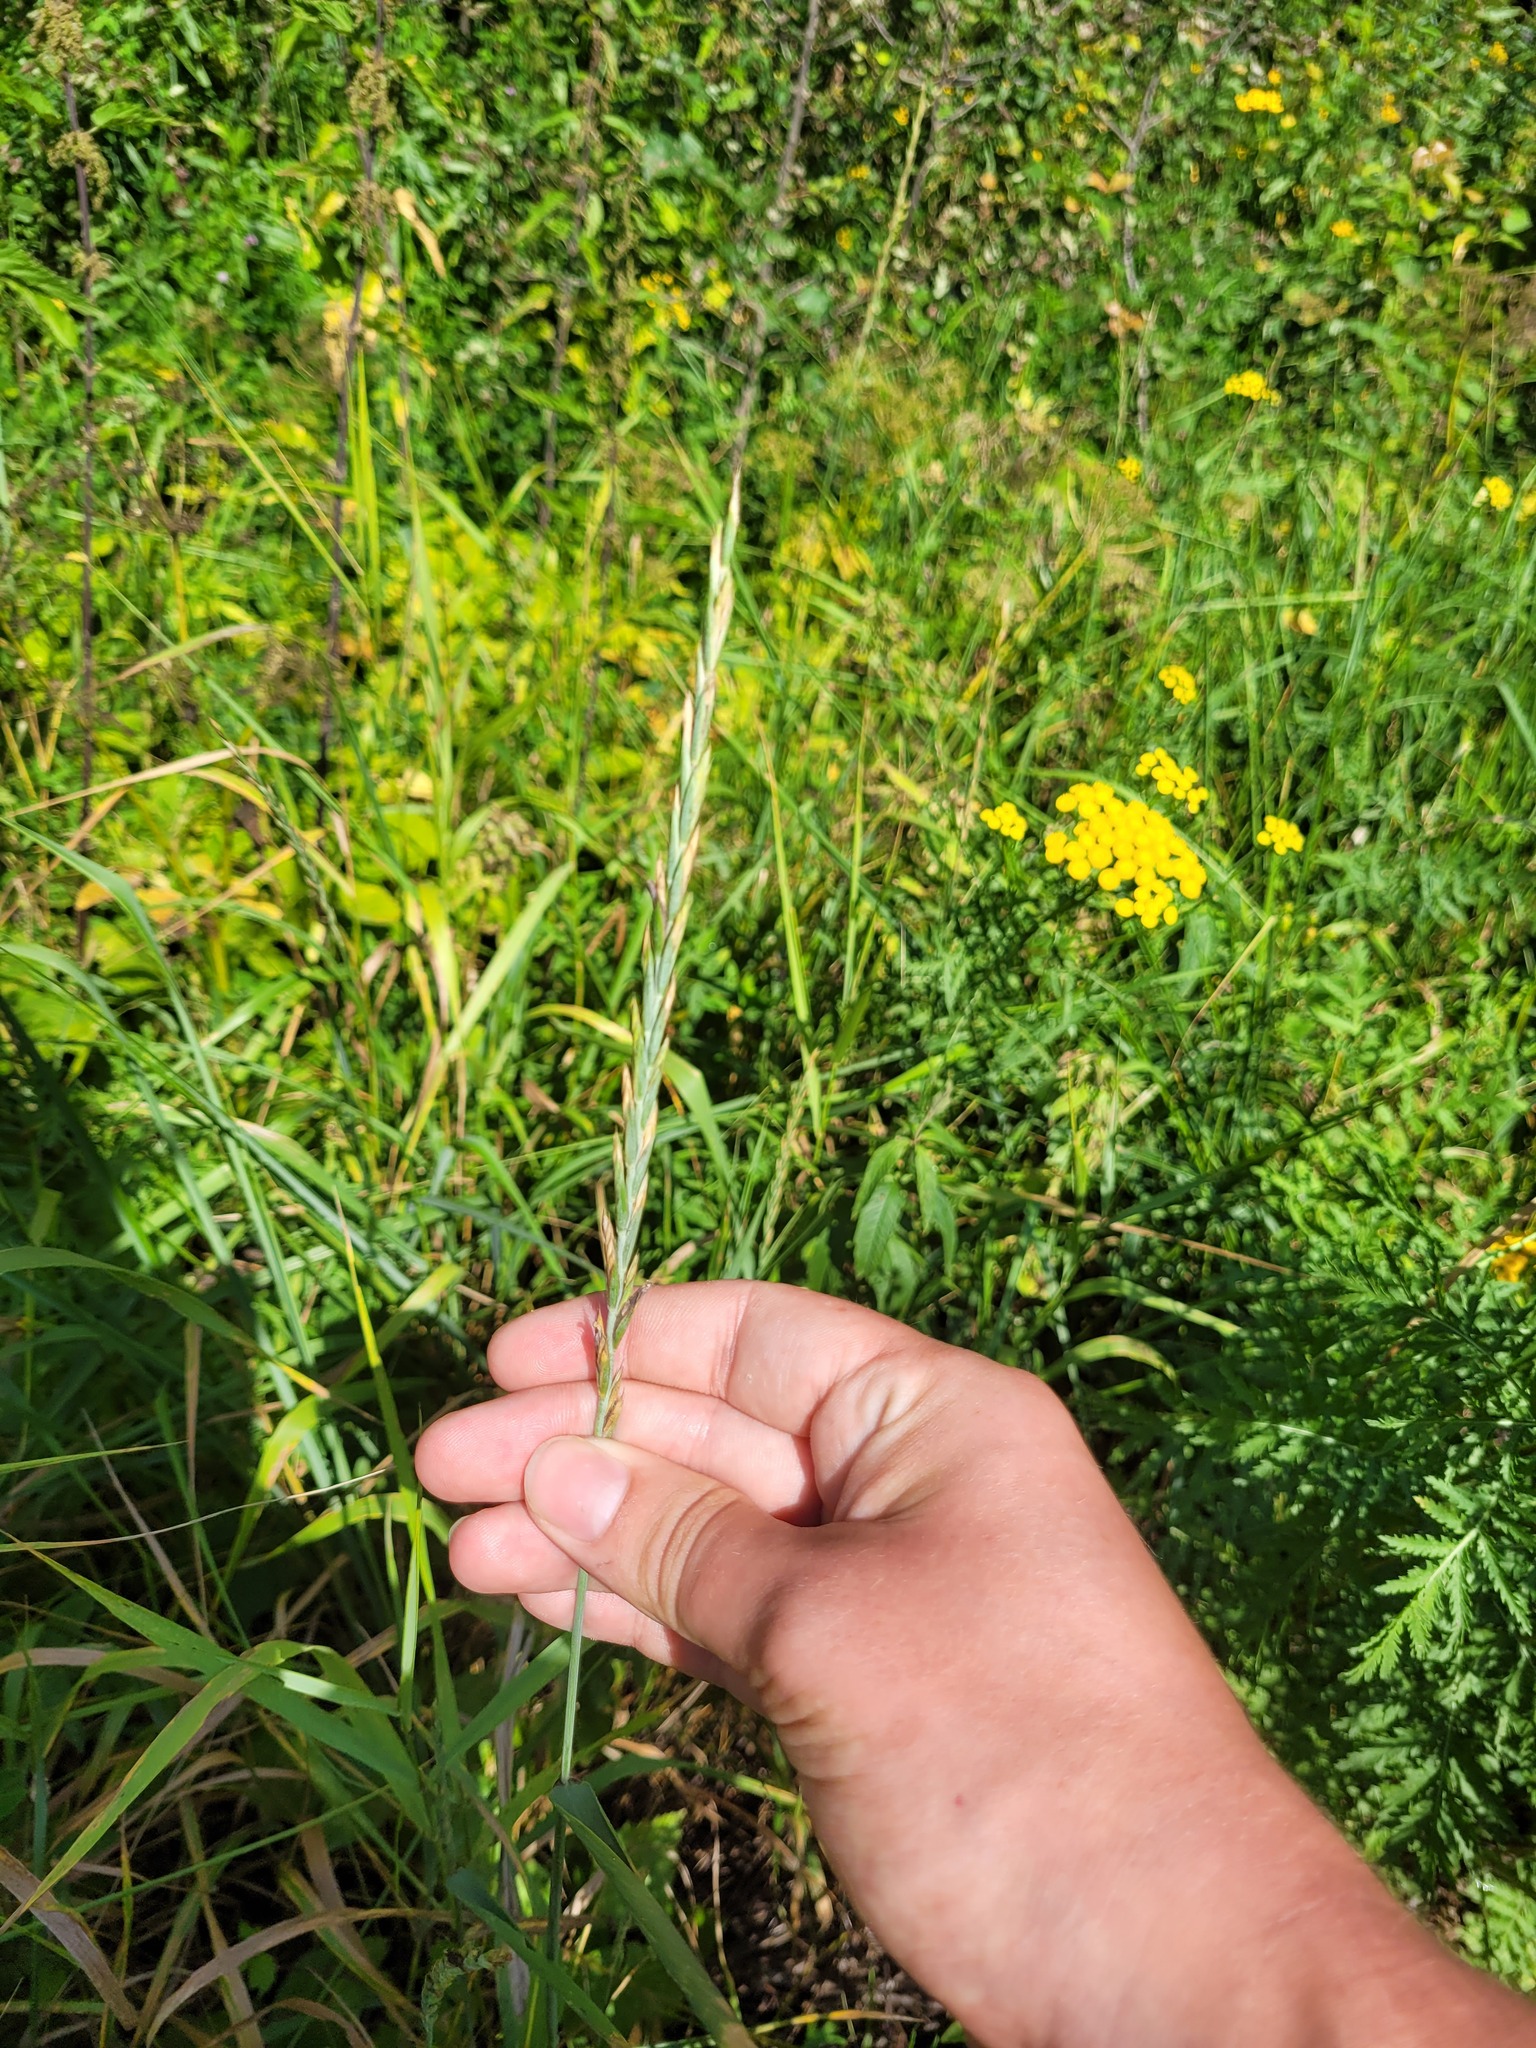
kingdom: Plantae
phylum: Tracheophyta
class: Liliopsida
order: Poales
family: Poaceae
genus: Elymus
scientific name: Elymus repens
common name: Quackgrass
